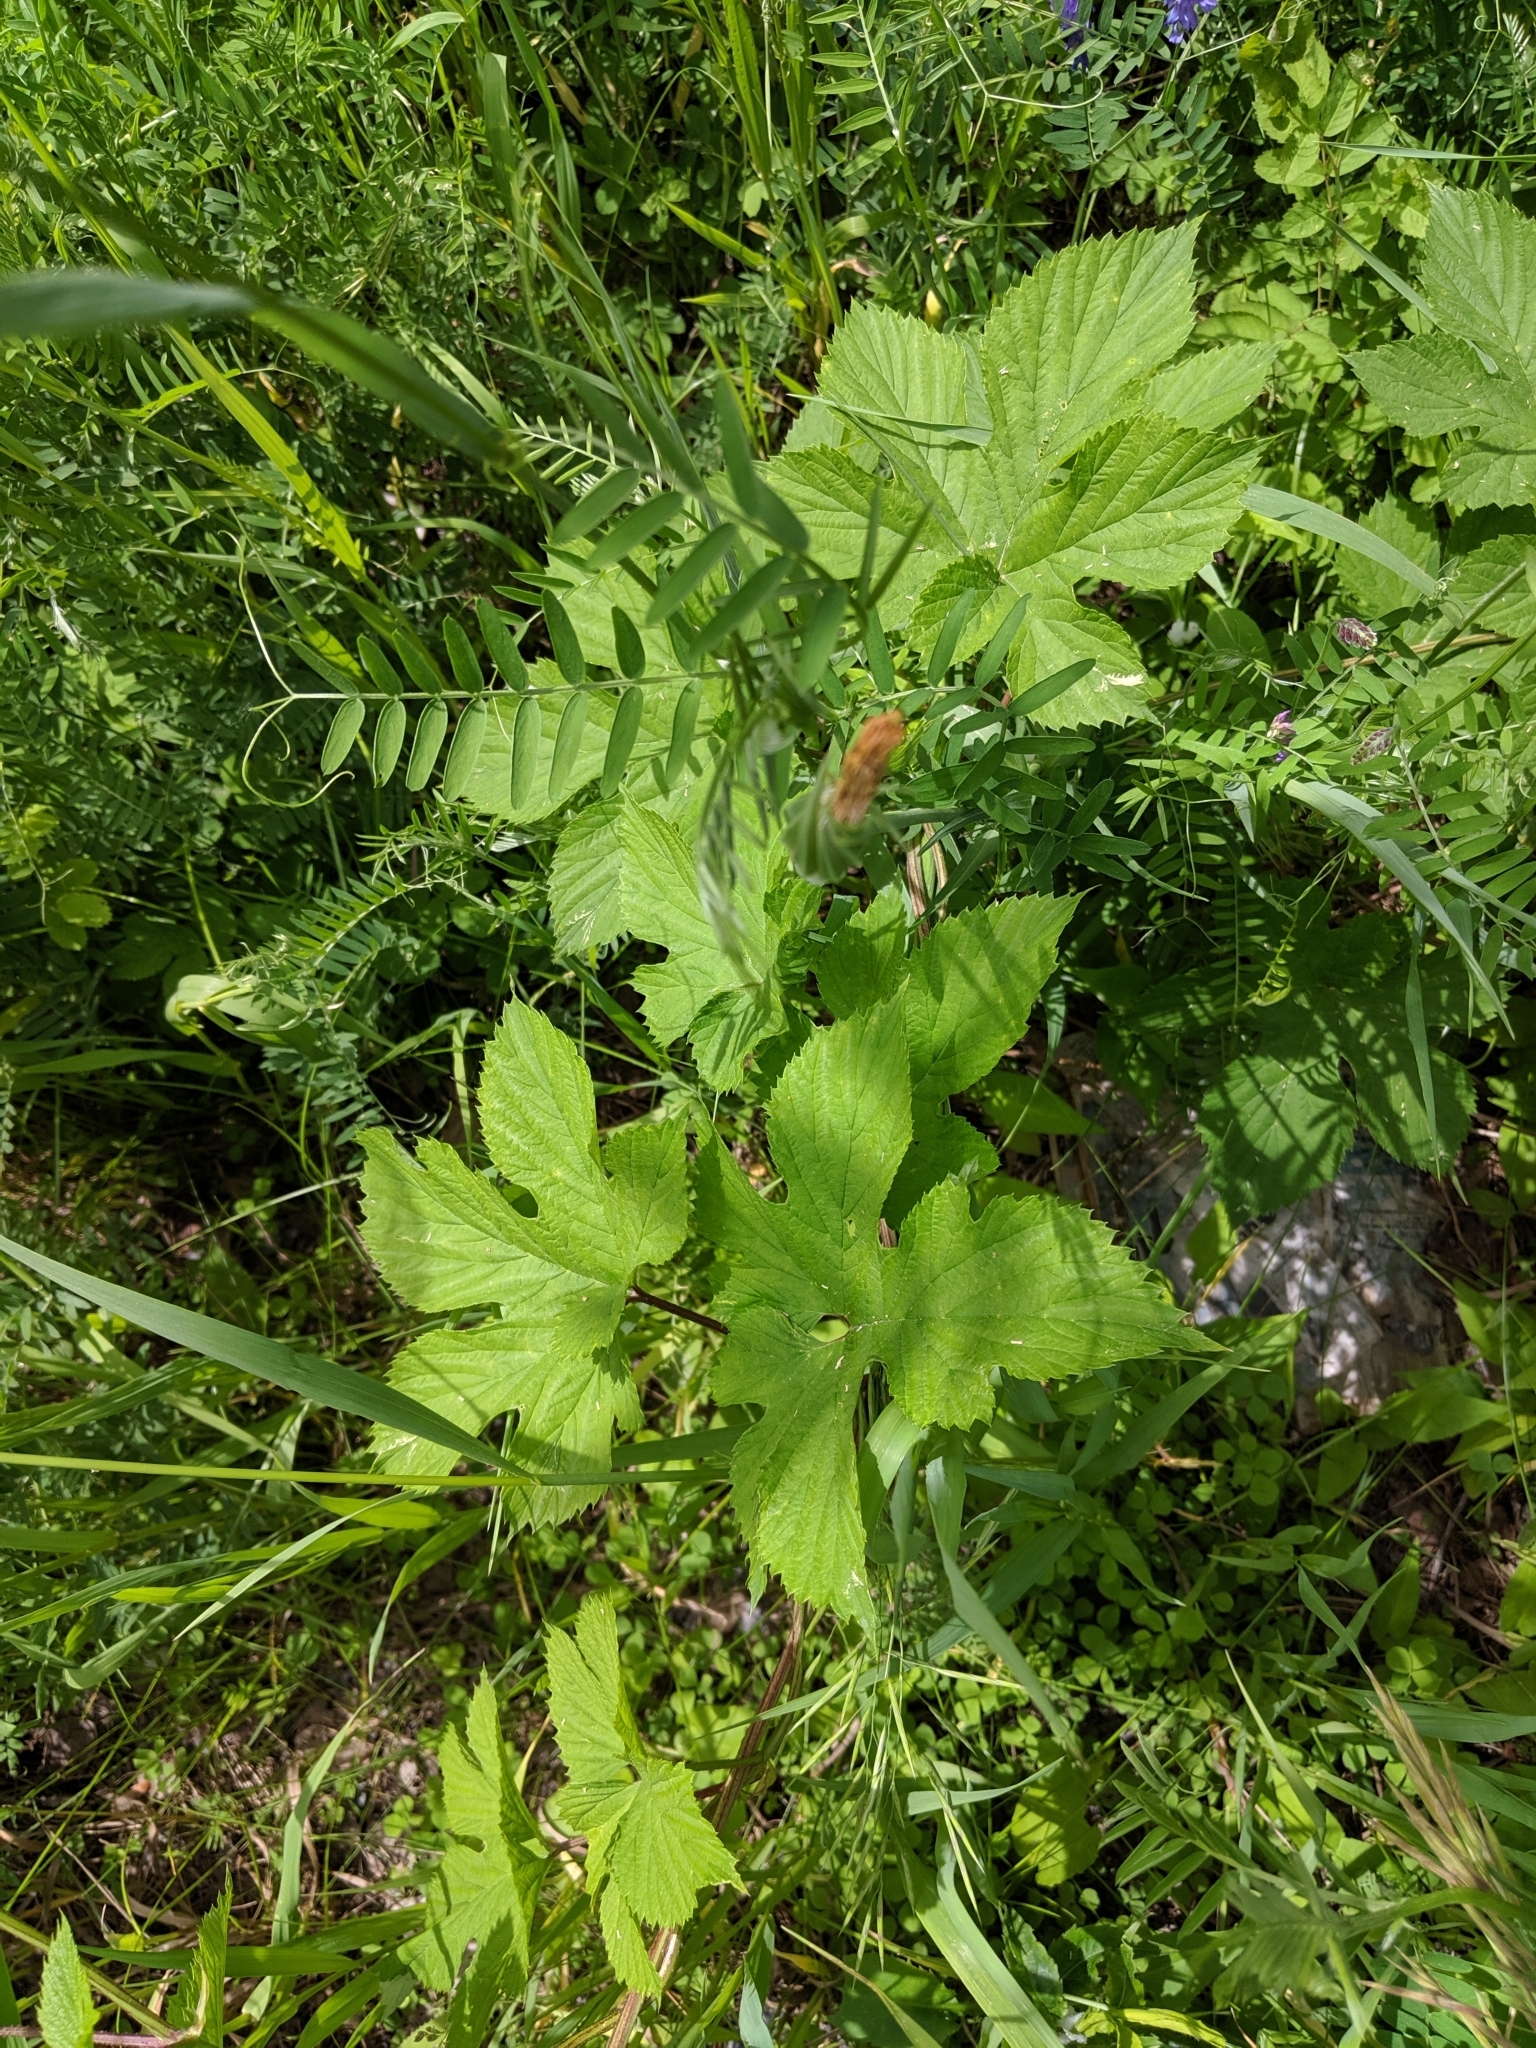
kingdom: Plantae
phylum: Tracheophyta
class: Magnoliopsida
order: Rosales
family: Cannabaceae
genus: Humulus
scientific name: Humulus lupulus
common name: Hop
